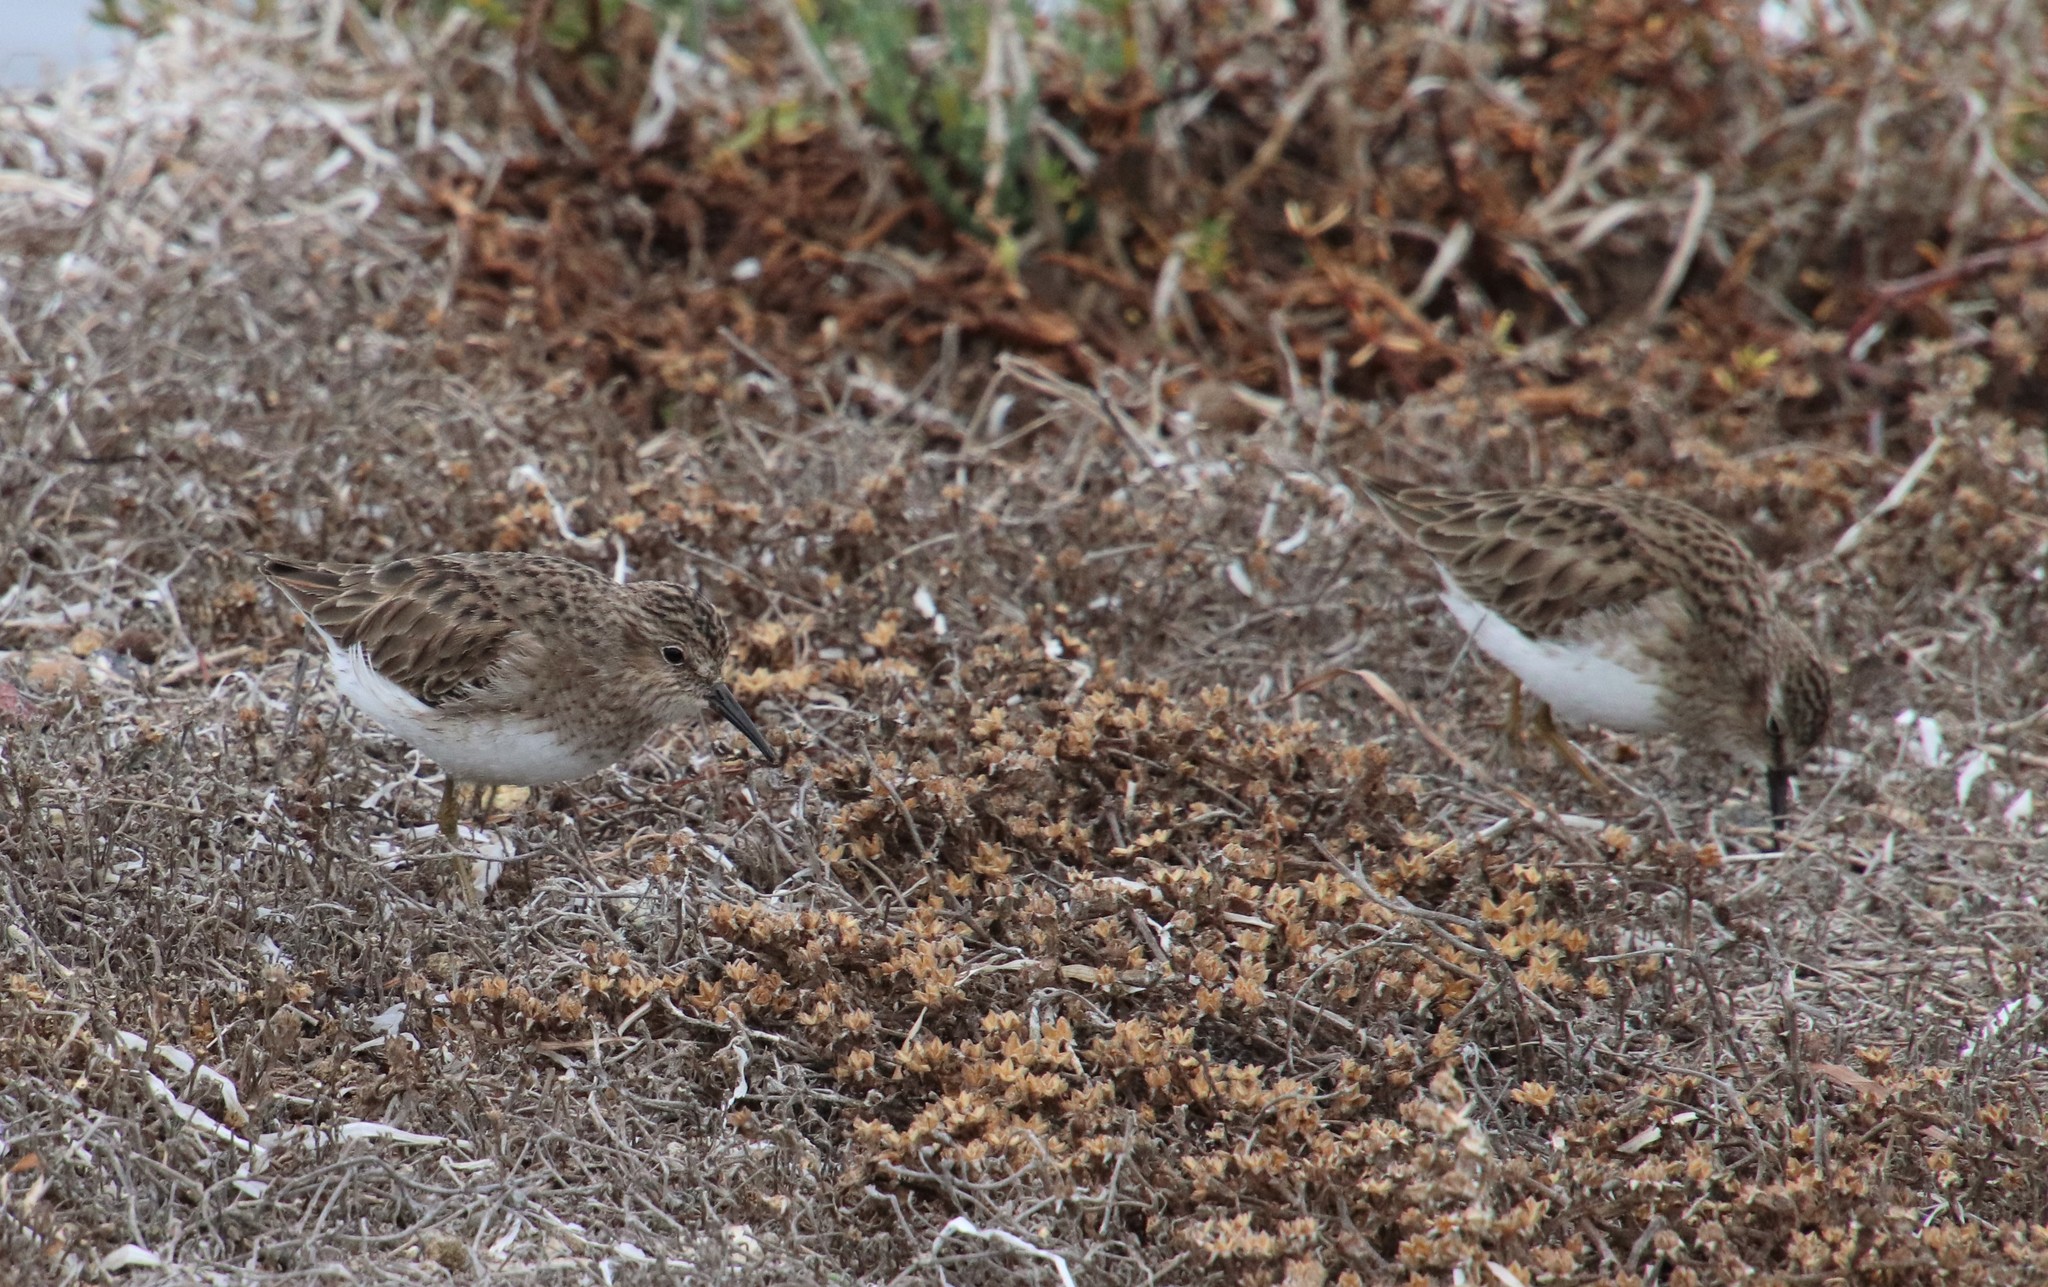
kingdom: Animalia
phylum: Chordata
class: Aves
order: Charadriiformes
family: Scolopacidae
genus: Calidris
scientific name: Calidris minutilla
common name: Least sandpiper
